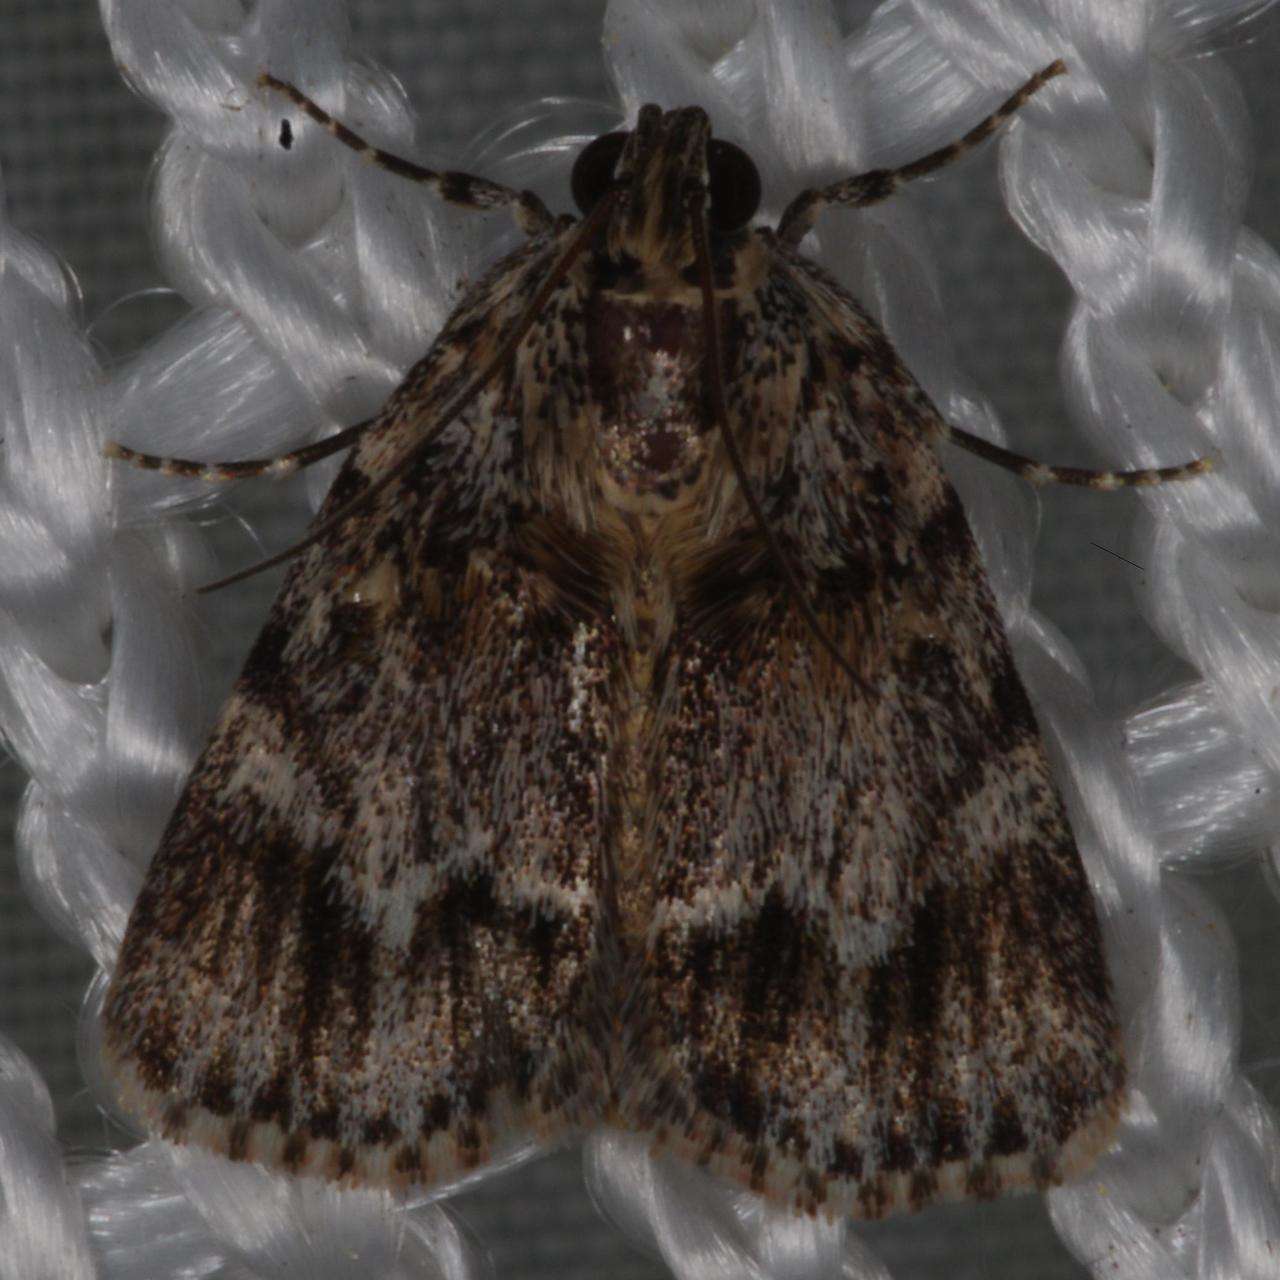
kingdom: Animalia
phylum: Arthropoda
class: Insecta
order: Lepidoptera
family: Pyralidae
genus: Spectrotrota
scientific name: Spectrotrota fimbrialis
